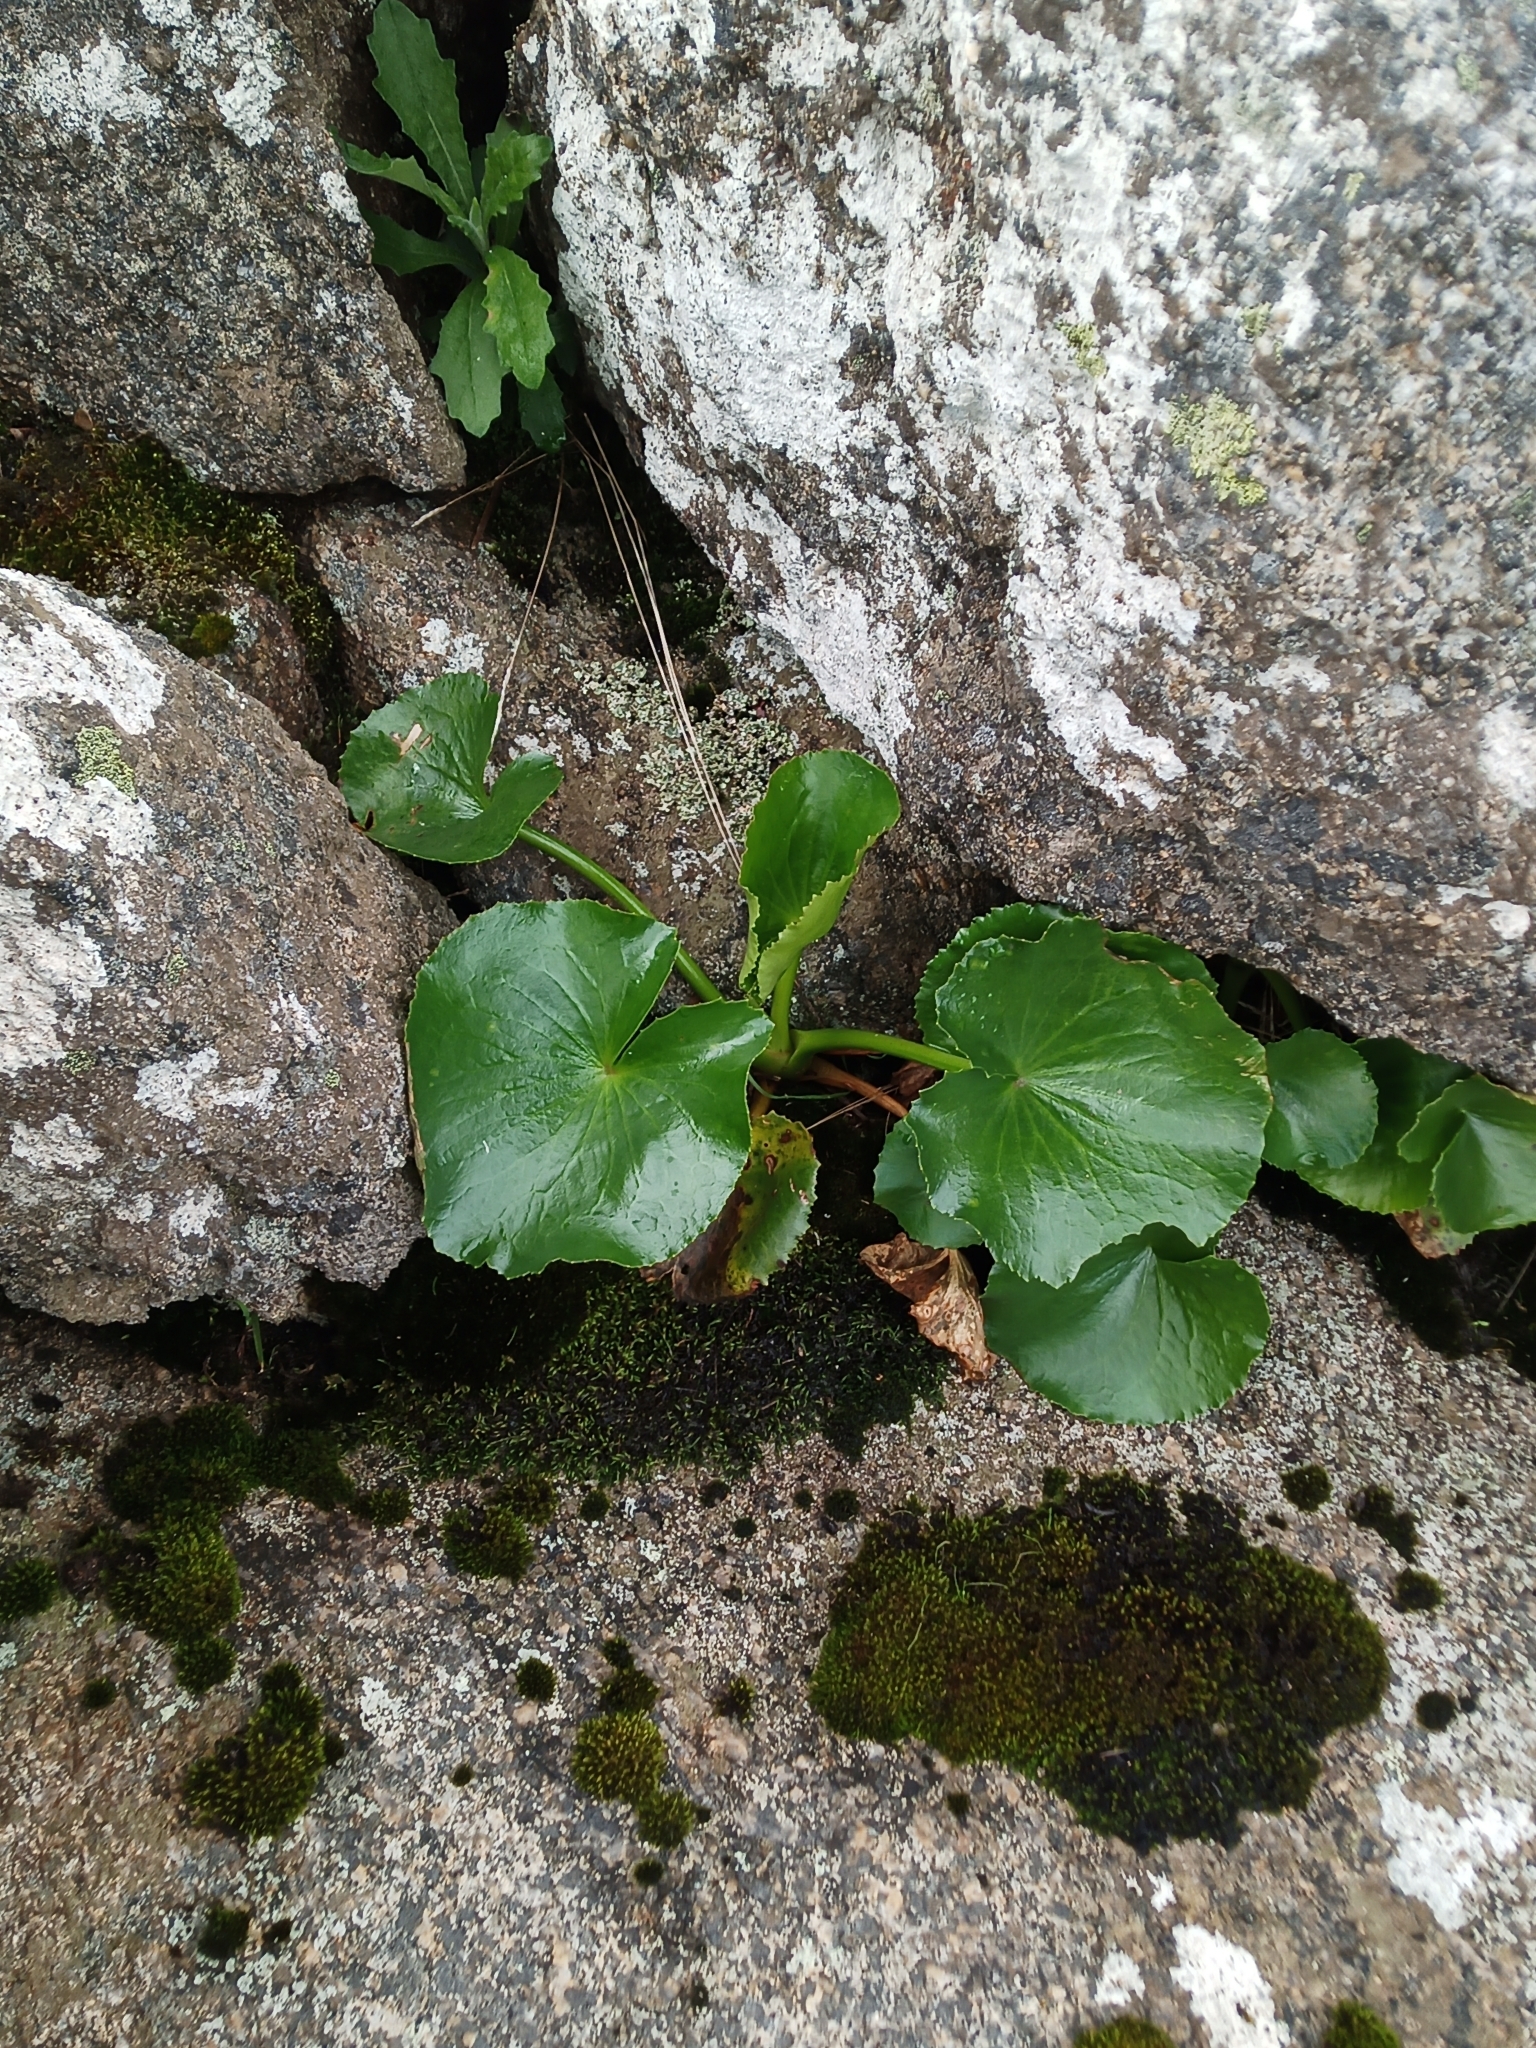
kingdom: Plantae
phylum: Tracheophyta
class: Magnoliopsida
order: Asterales
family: Menyanthaceae
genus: Ornduffia
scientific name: Ornduffia calthifolia
